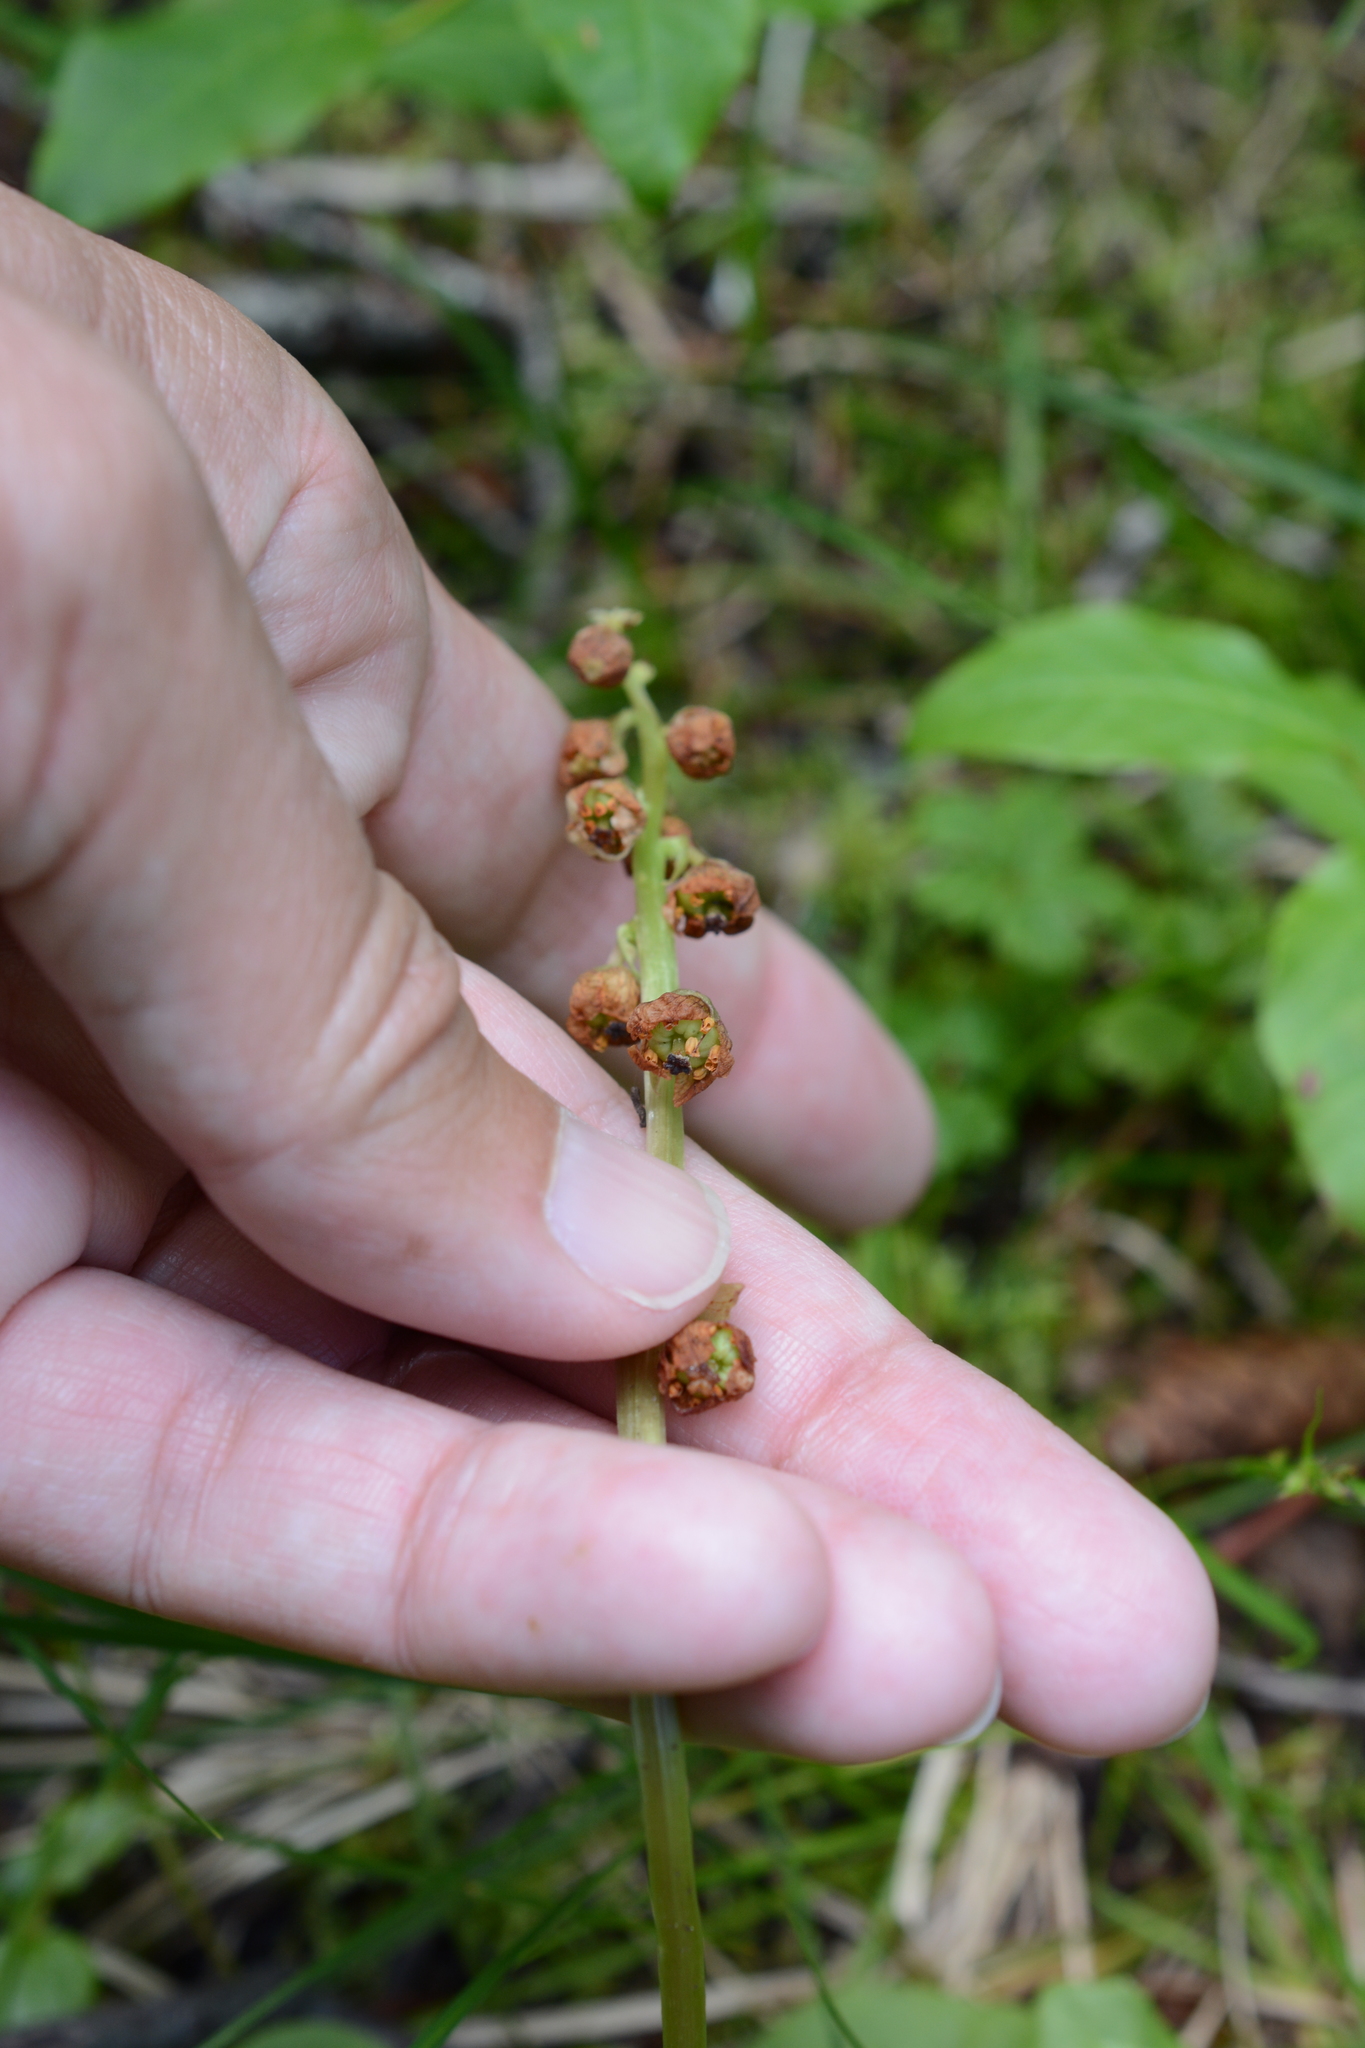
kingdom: Plantae
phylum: Tracheophyta
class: Magnoliopsida
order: Ericales
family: Ericaceae
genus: Pyrola
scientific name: Pyrola minor
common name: Common wintergreen
